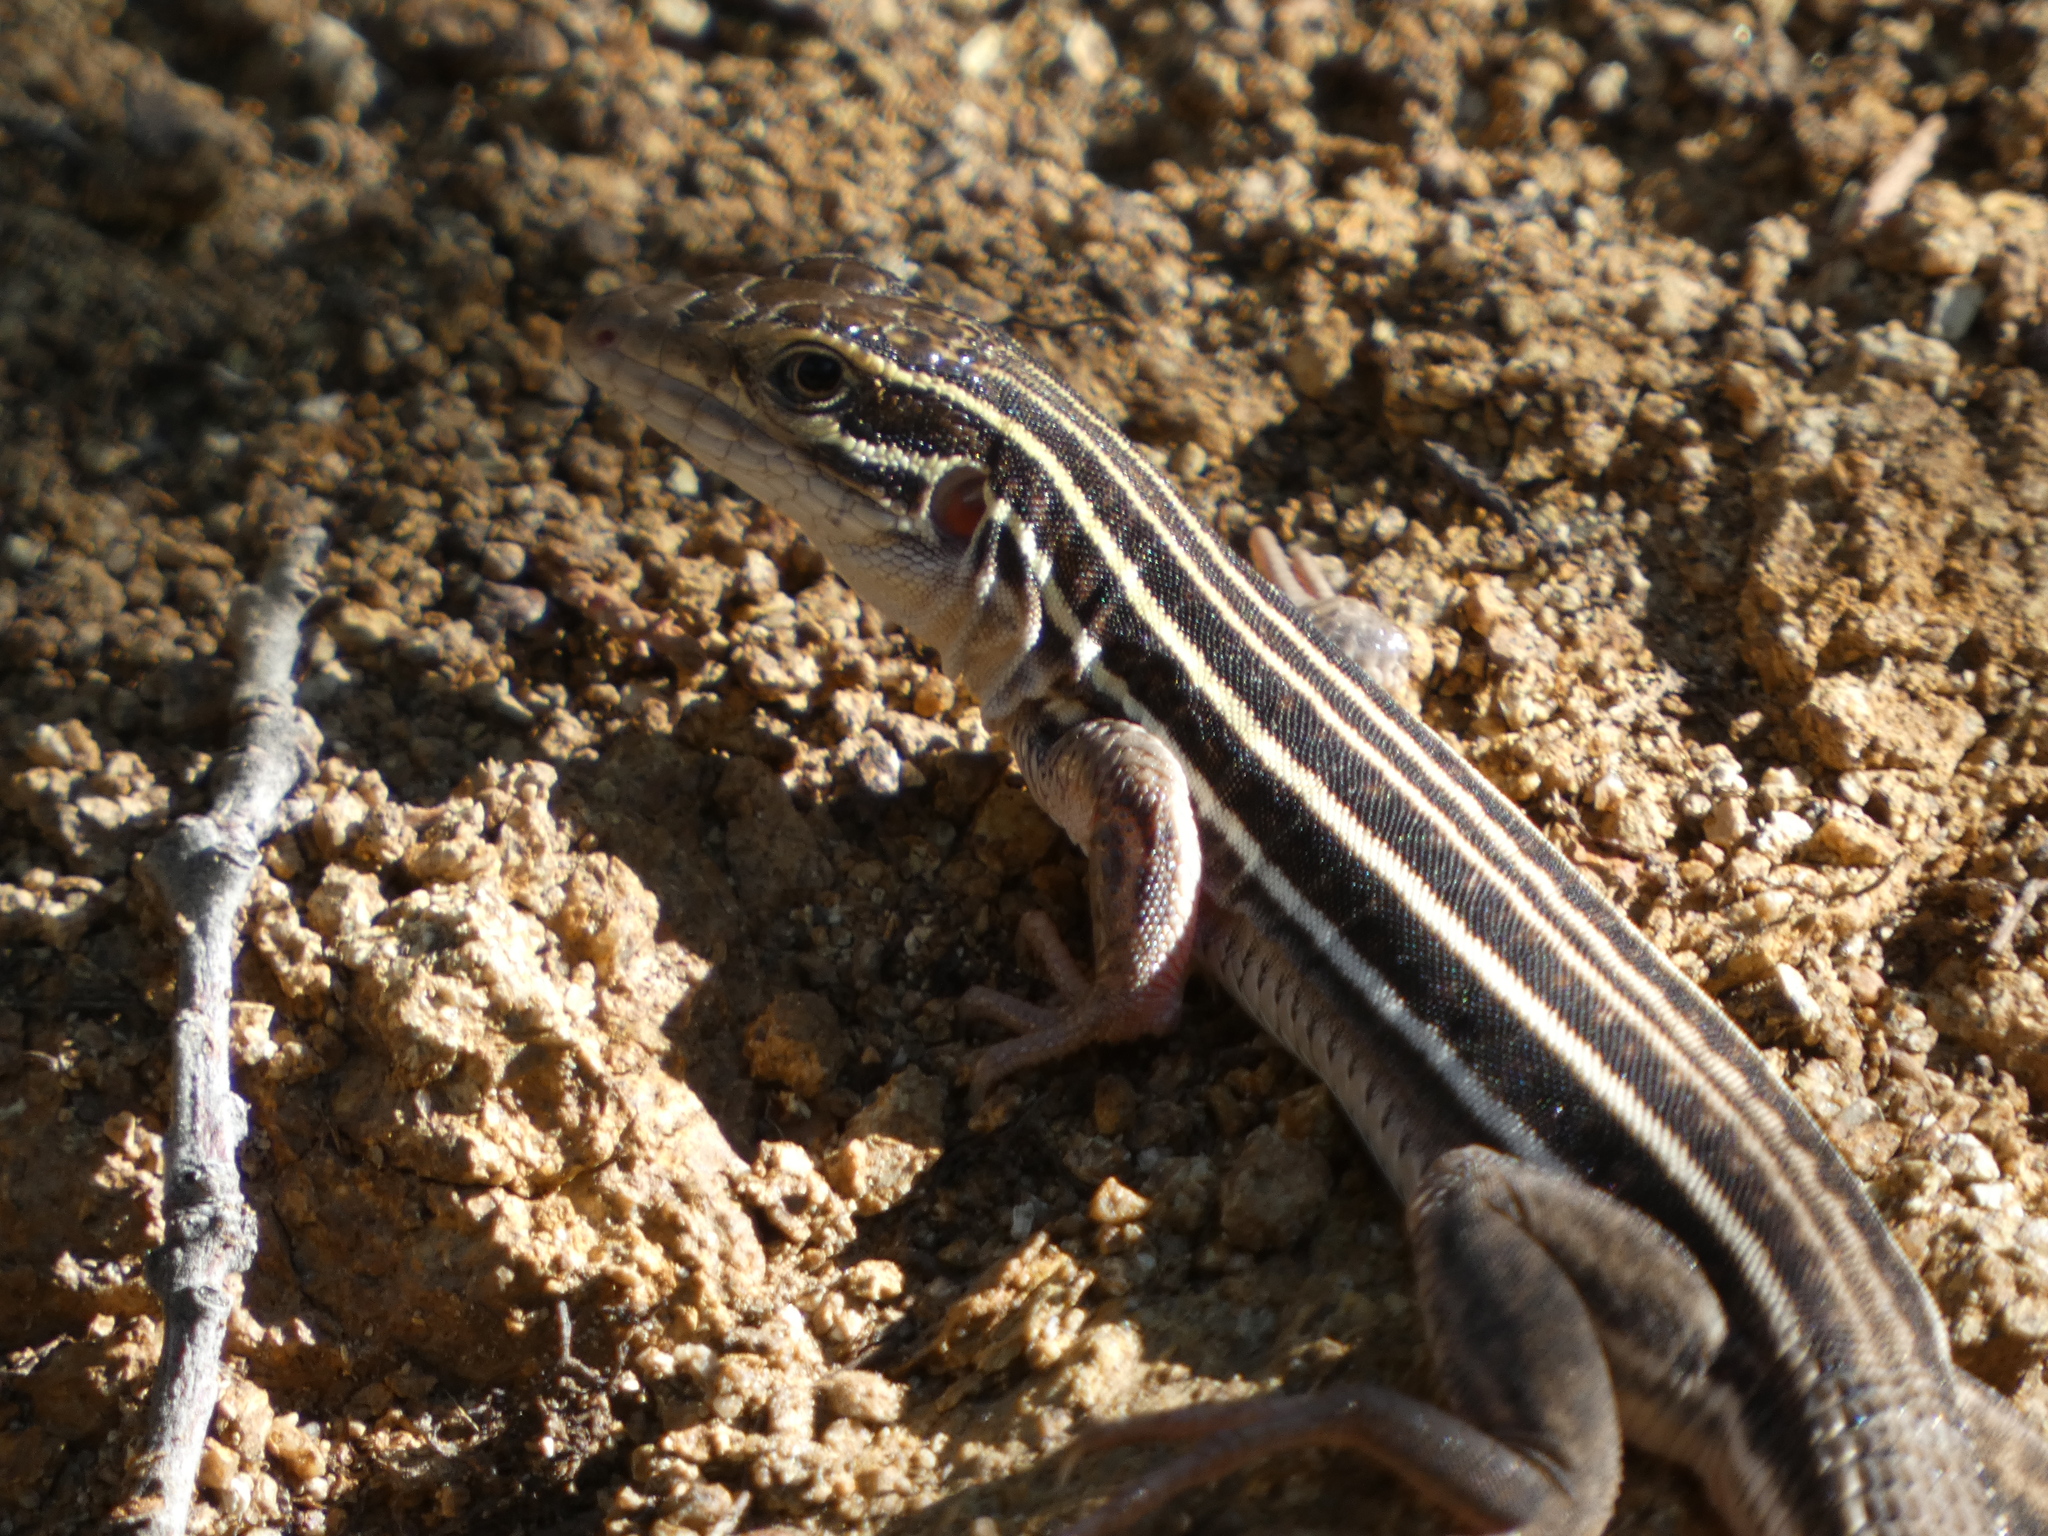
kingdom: Animalia
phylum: Chordata
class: Squamata
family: Teiidae
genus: Aspidoscelis
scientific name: Aspidoscelis sonorae
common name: Sonoran spotted whiptail
